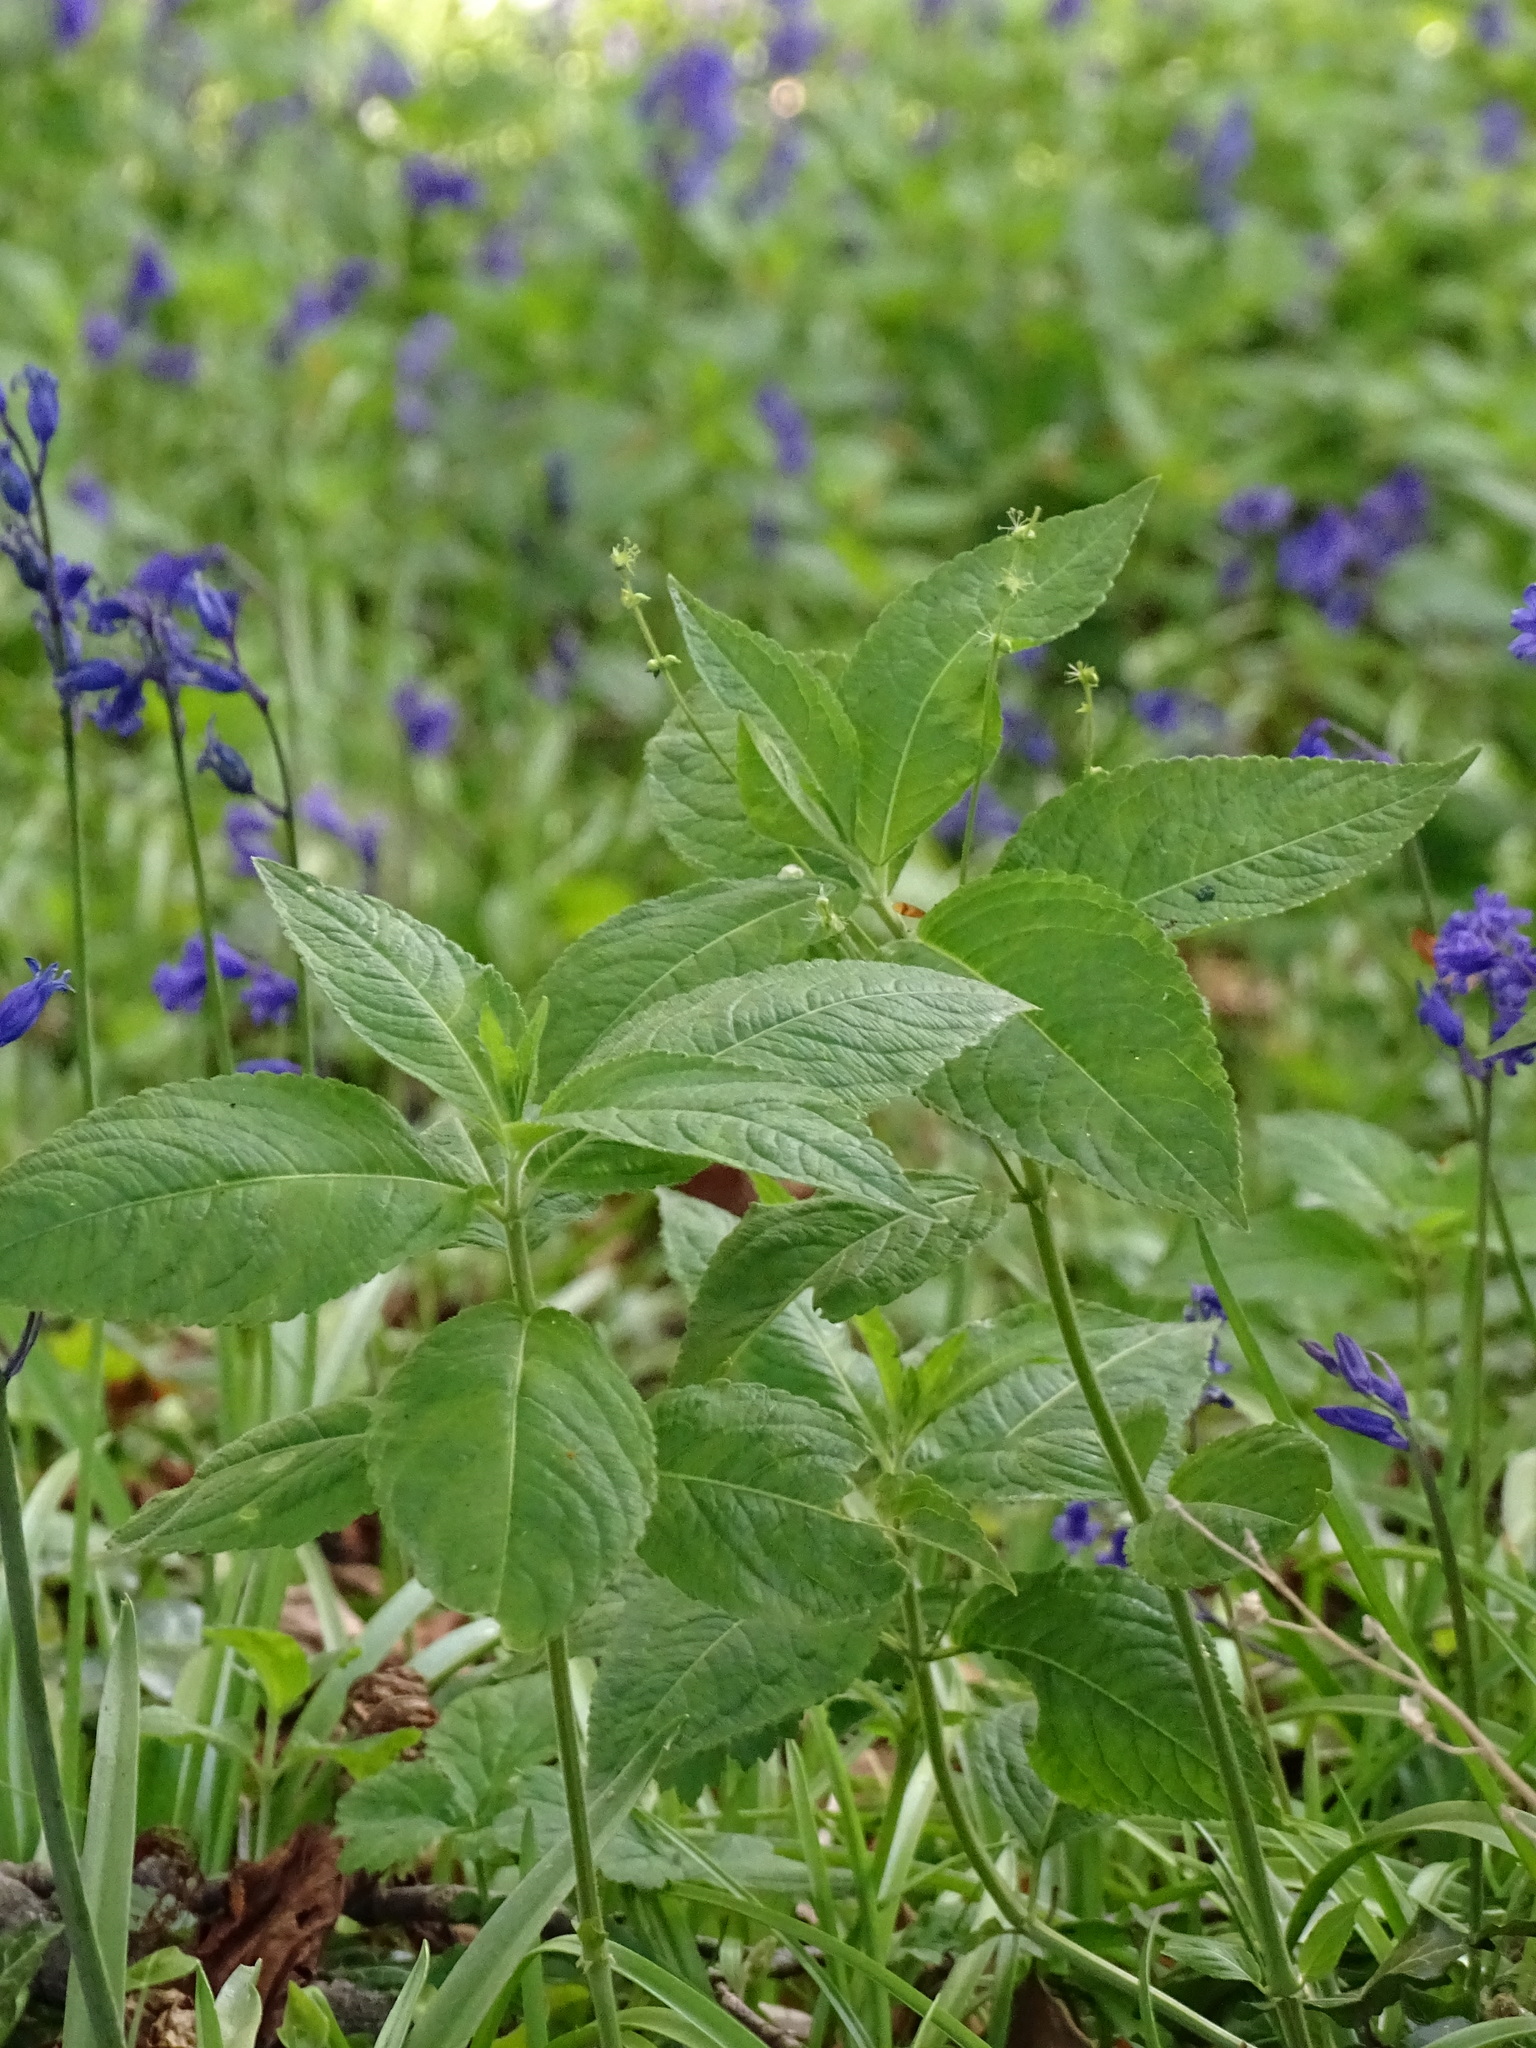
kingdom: Plantae
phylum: Tracheophyta
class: Magnoliopsida
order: Malpighiales
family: Euphorbiaceae
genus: Mercurialis
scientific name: Mercurialis perennis
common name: Dog mercury
